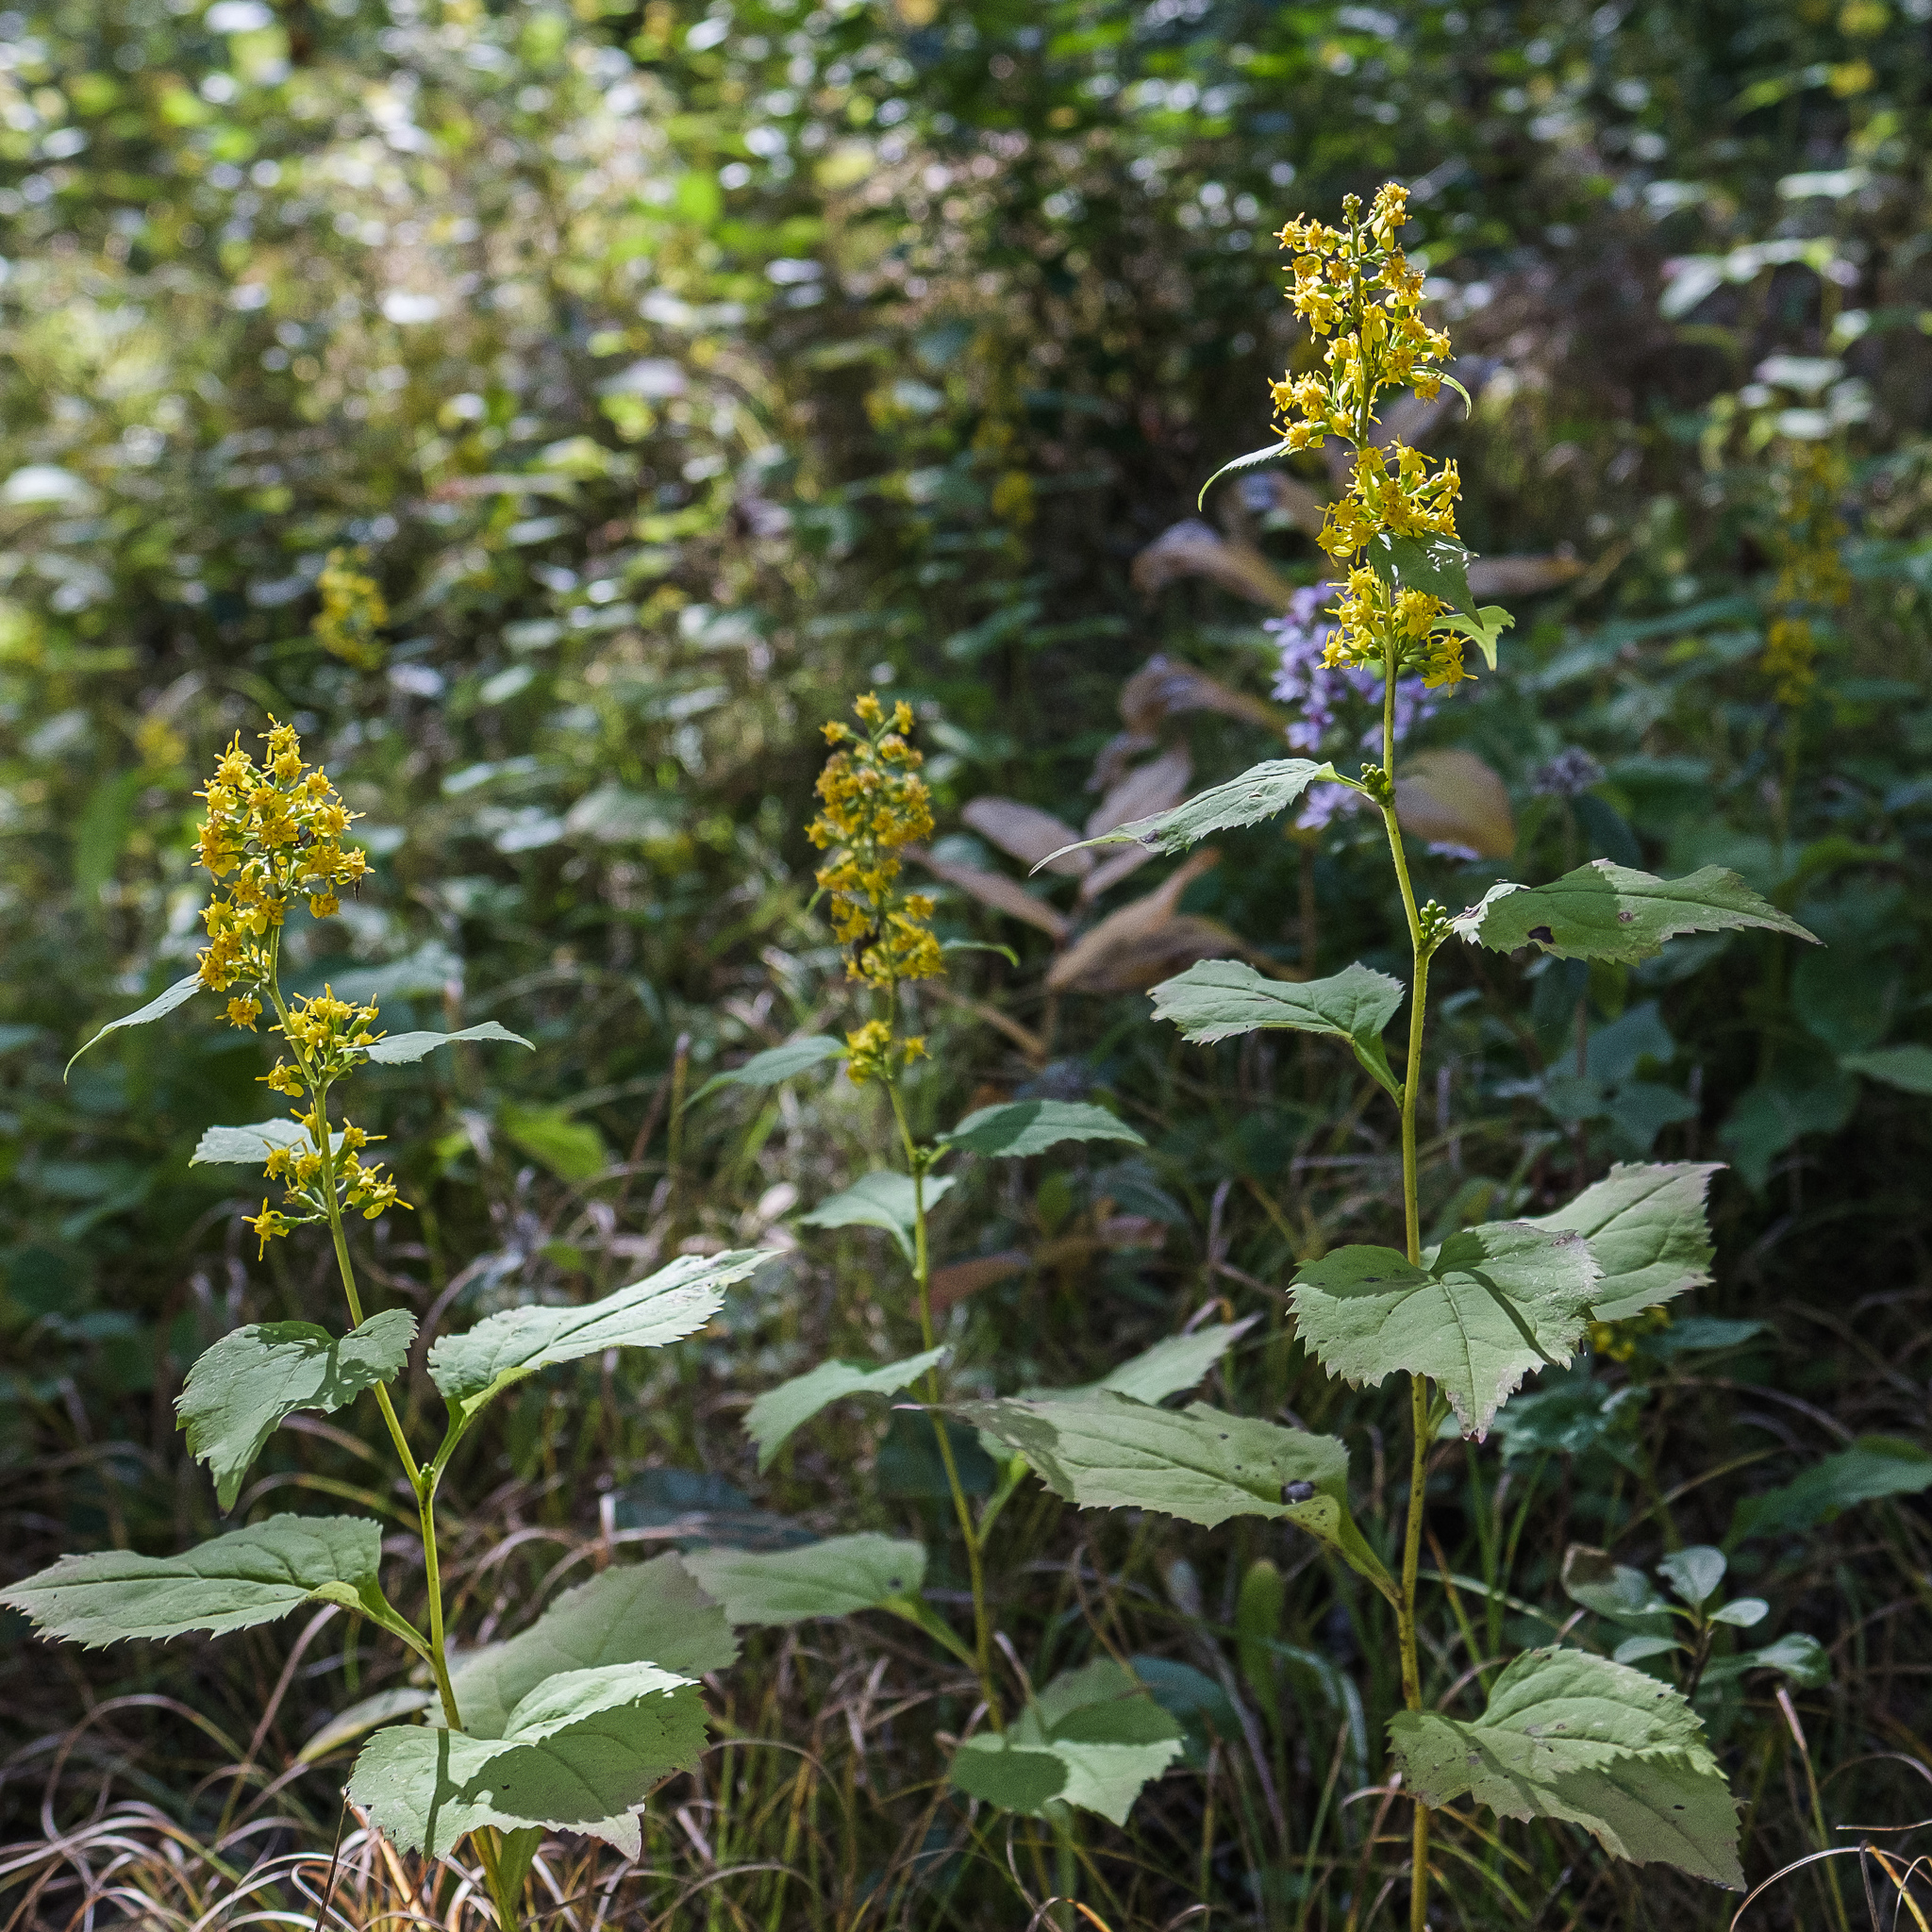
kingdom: Plantae
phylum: Tracheophyta
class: Magnoliopsida
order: Asterales
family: Asteraceae
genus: Solidago
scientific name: Solidago flexicaulis
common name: Zig-zag goldenrod
